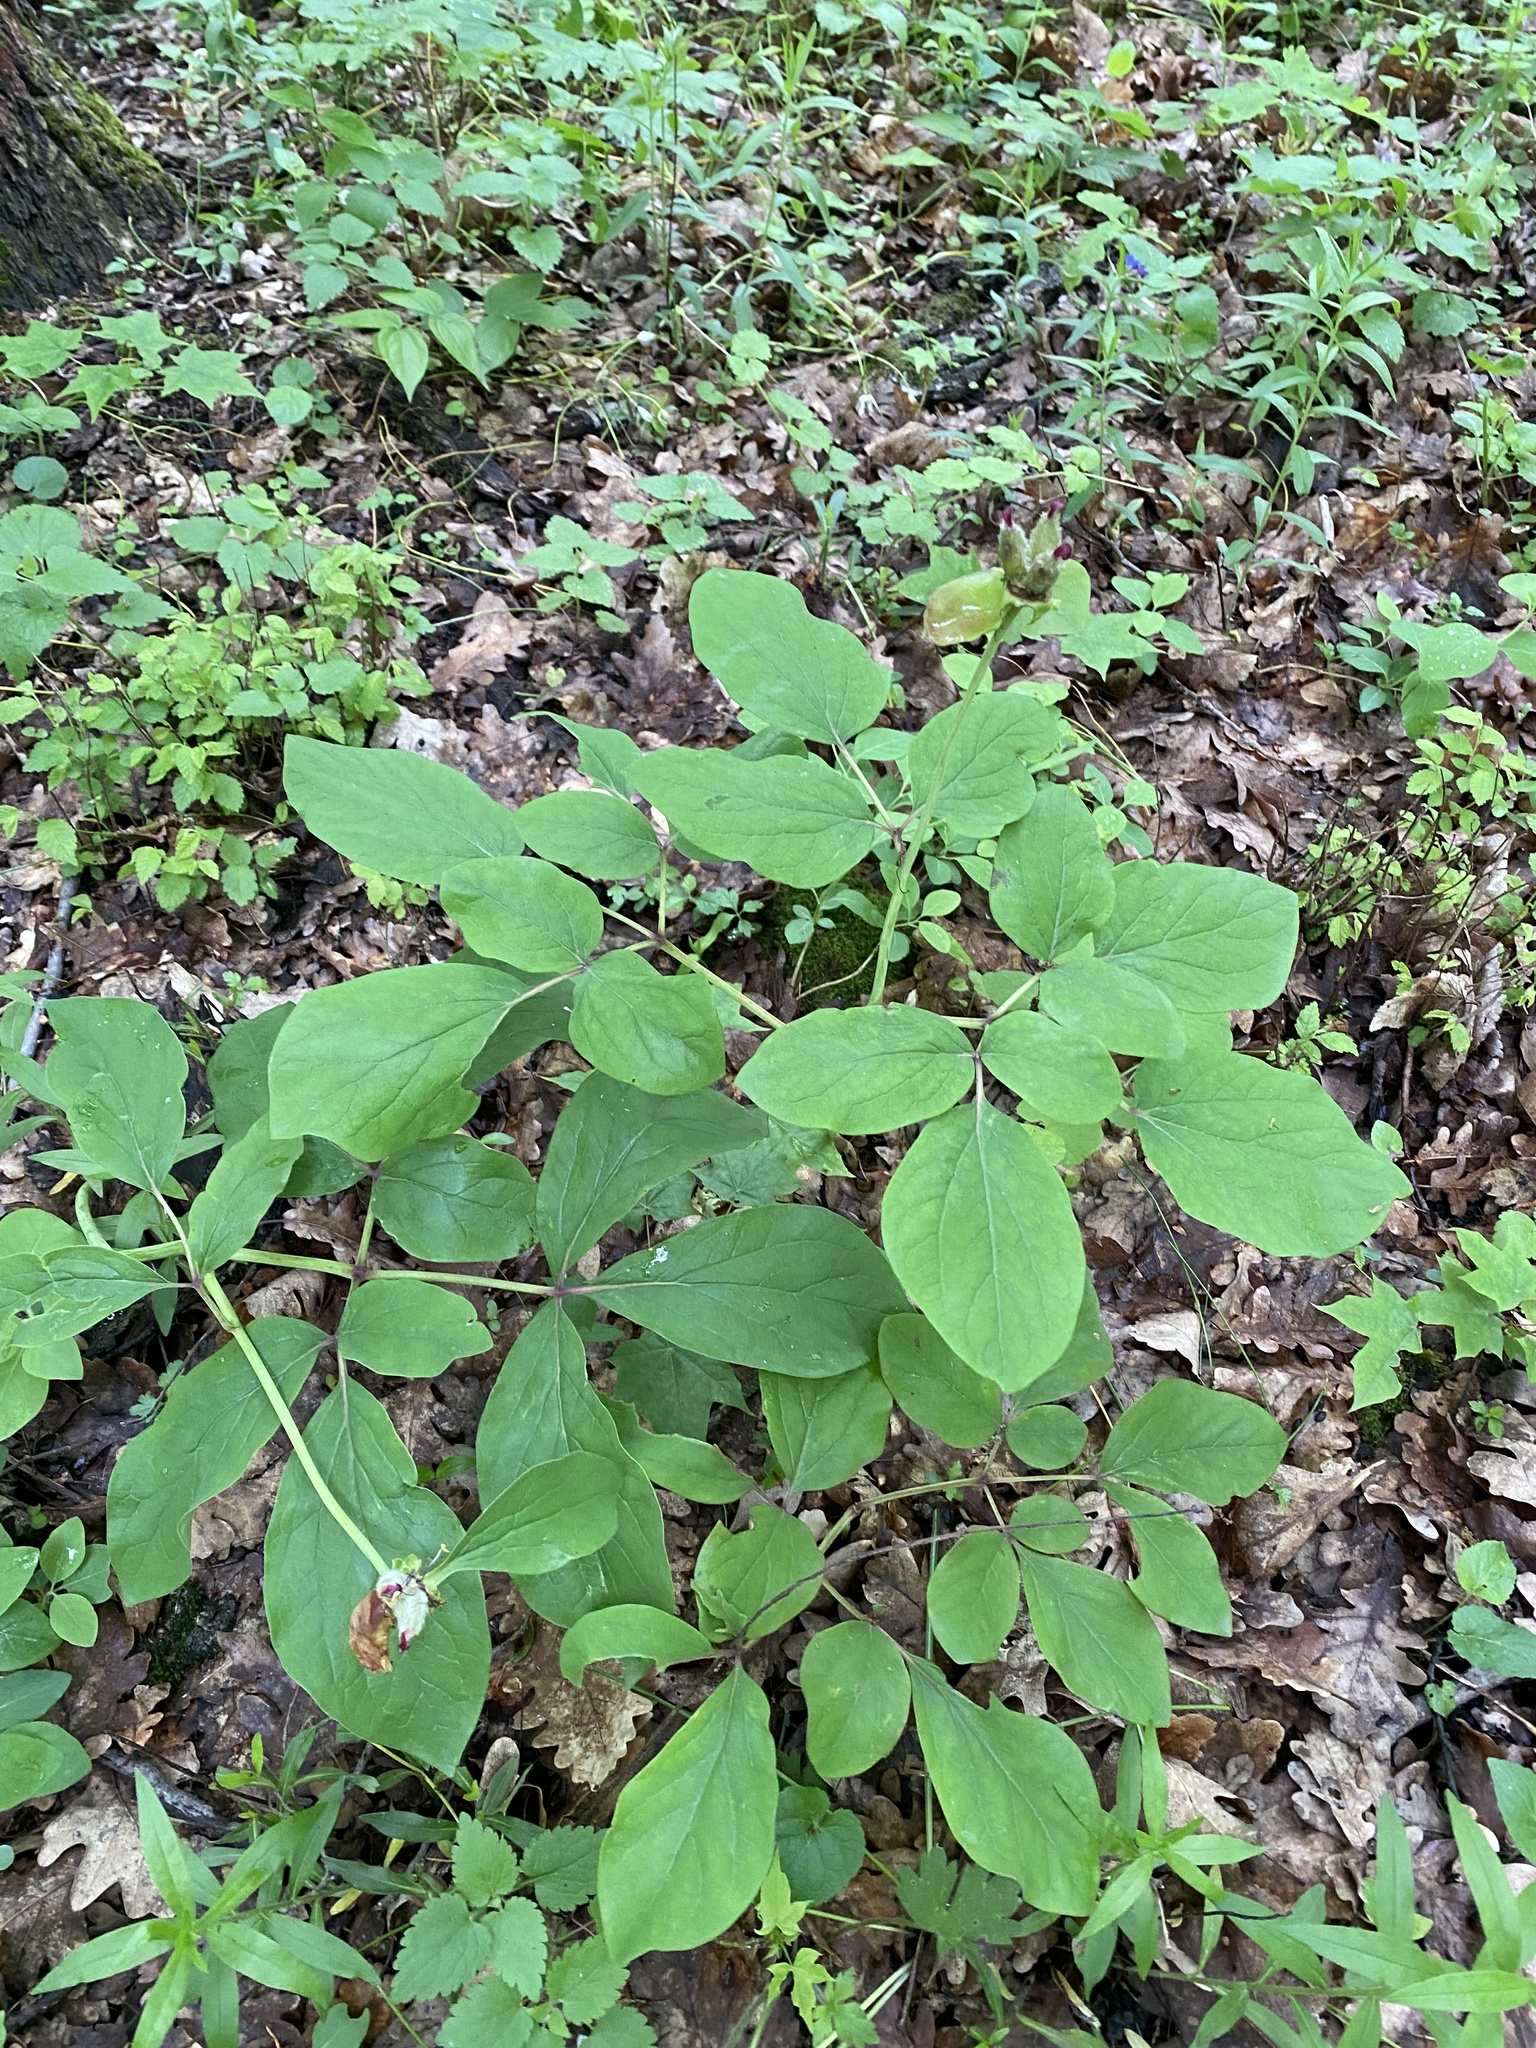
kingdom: Plantae
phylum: Tracheophyta
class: Magnoliopsida
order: Saxifragales
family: Paeoniaceae
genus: Paeonia
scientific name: Paeonia caucasica
